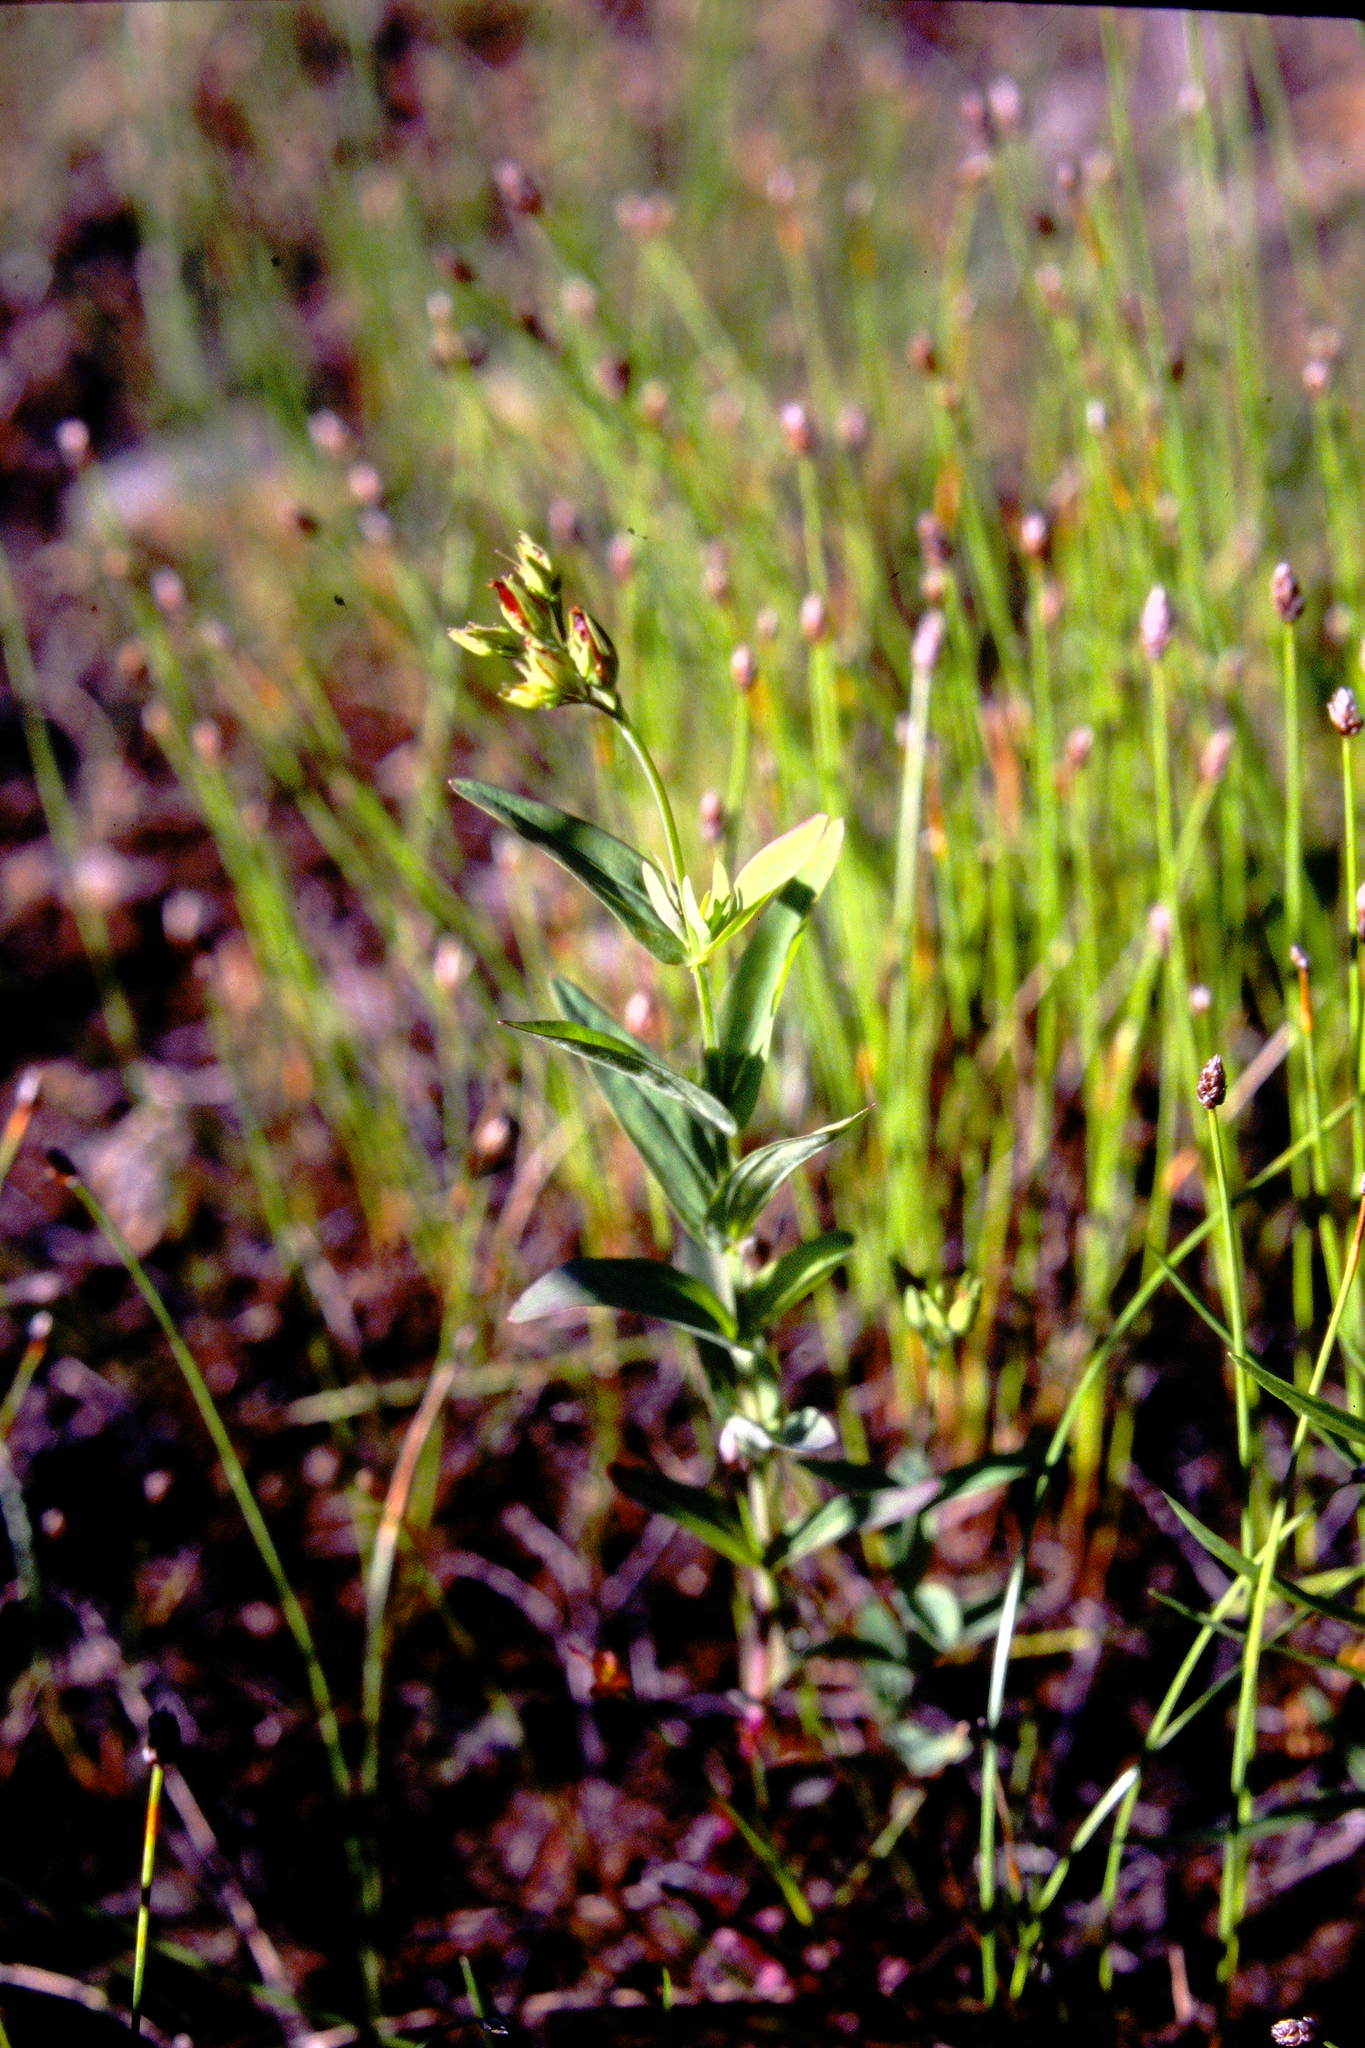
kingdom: Plantae
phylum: Tracheophyta
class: Magnoliopsida
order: Malpighiales
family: Hypericaceae
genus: Hypericum
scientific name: Hypericum majus
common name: Greater canadian st. john's-wort
